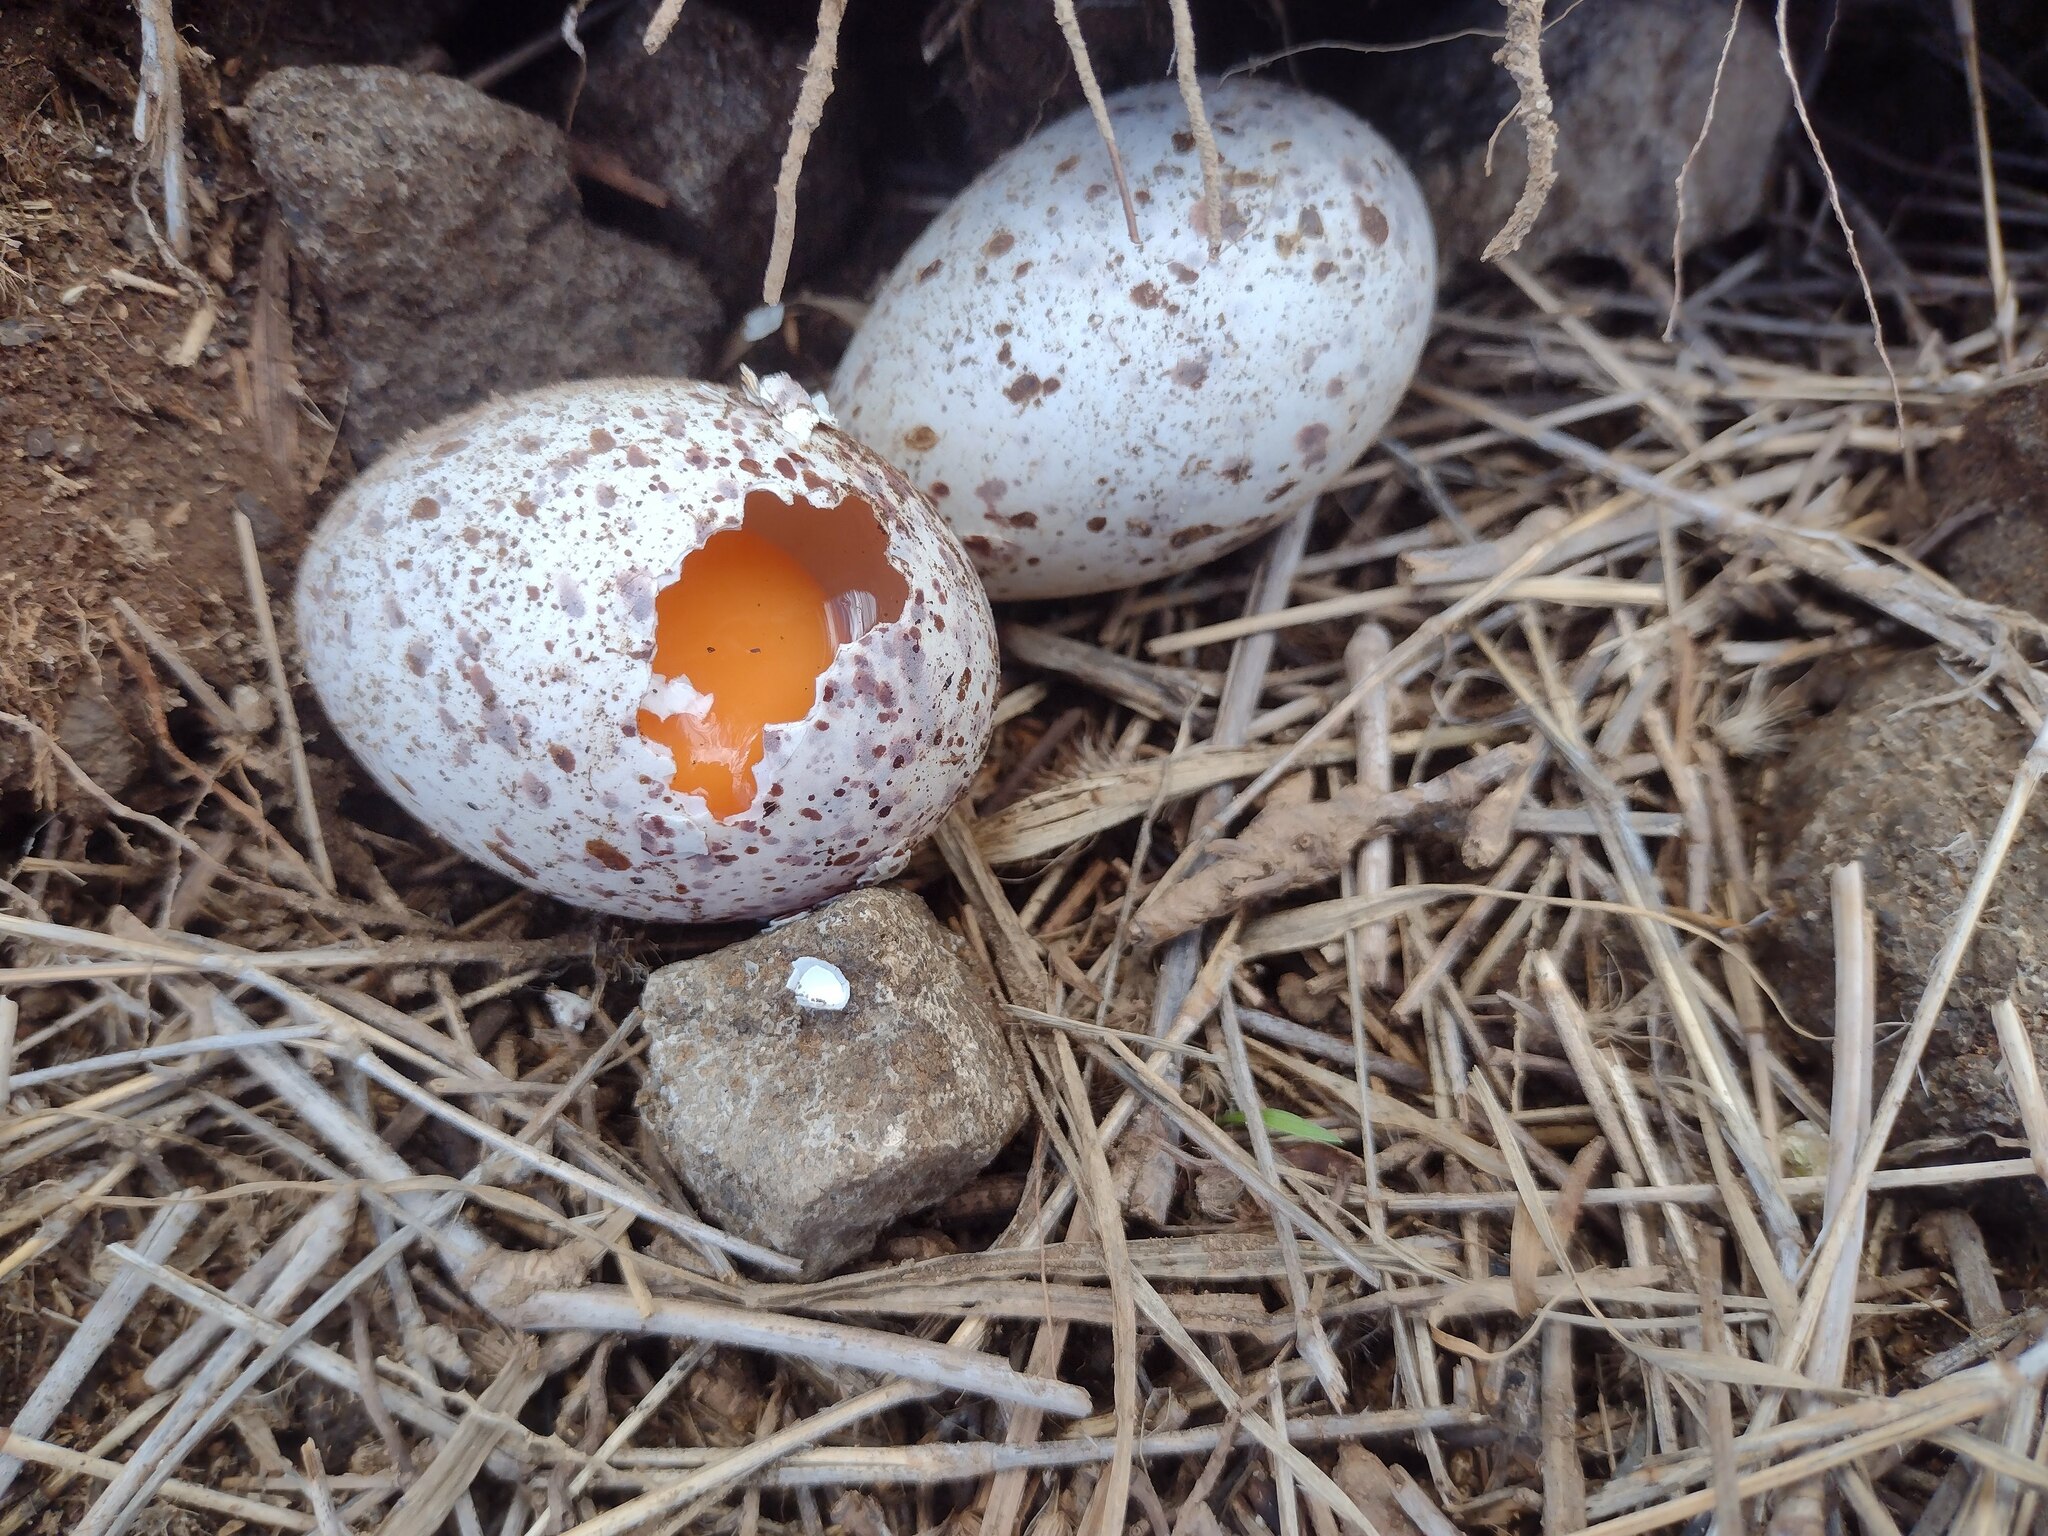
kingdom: Animalia
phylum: Chordata
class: Aves
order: Charadriiformes
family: Laridae
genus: Onychoprion
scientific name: Onychoprion fuscatus
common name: Sooty tern
